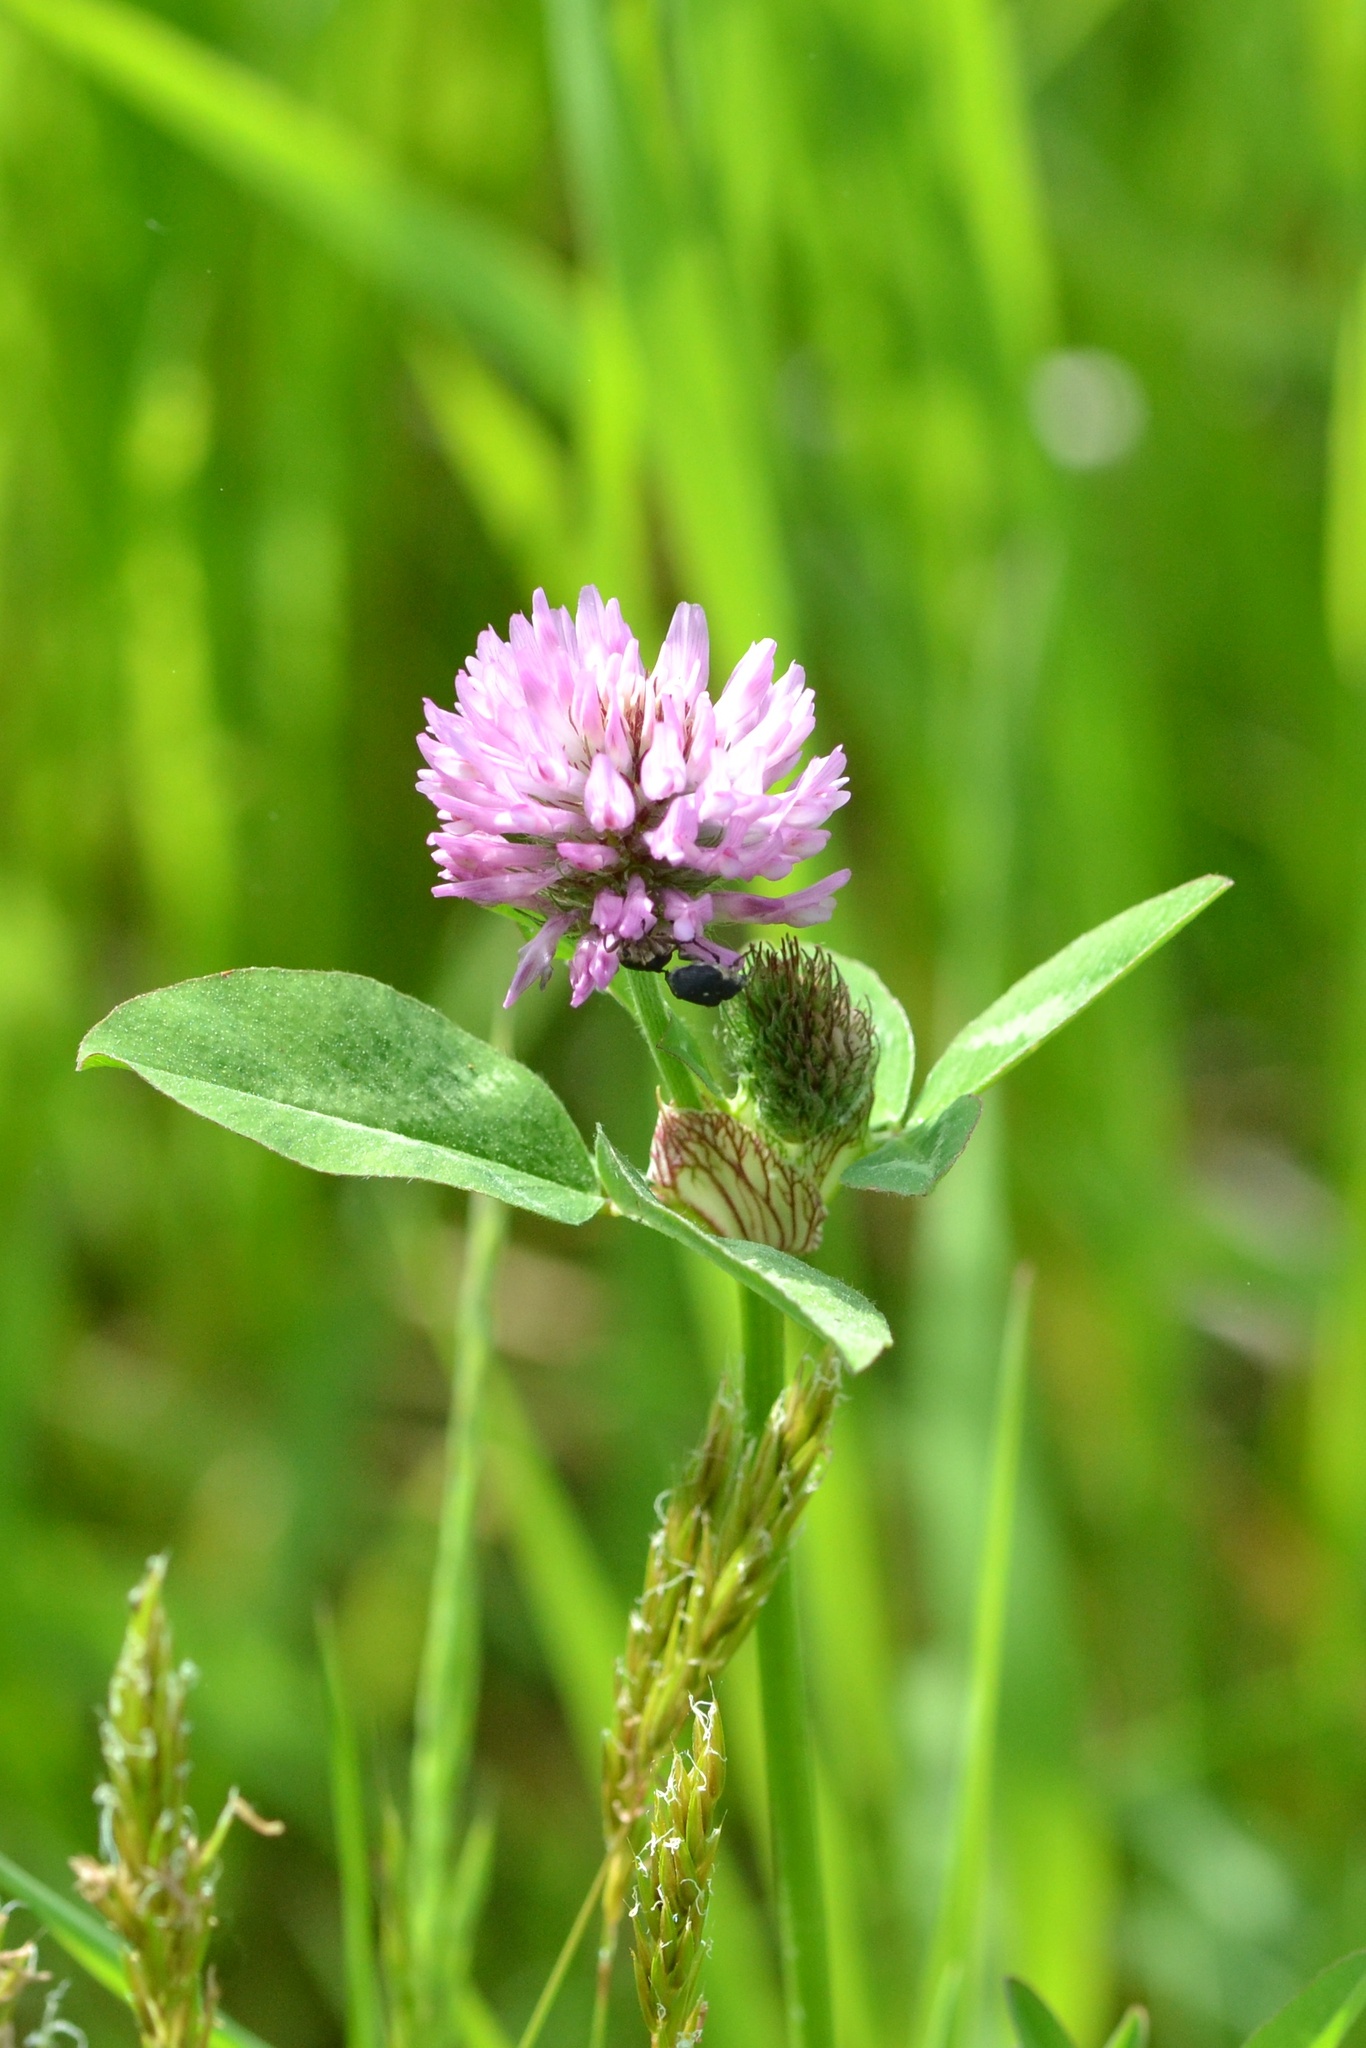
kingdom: Plantae
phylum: Tracheophyta
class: Magnoliopsida
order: Fabales
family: Fabaceae
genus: Trifolium
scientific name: Trifolium pratense
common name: Red clover
